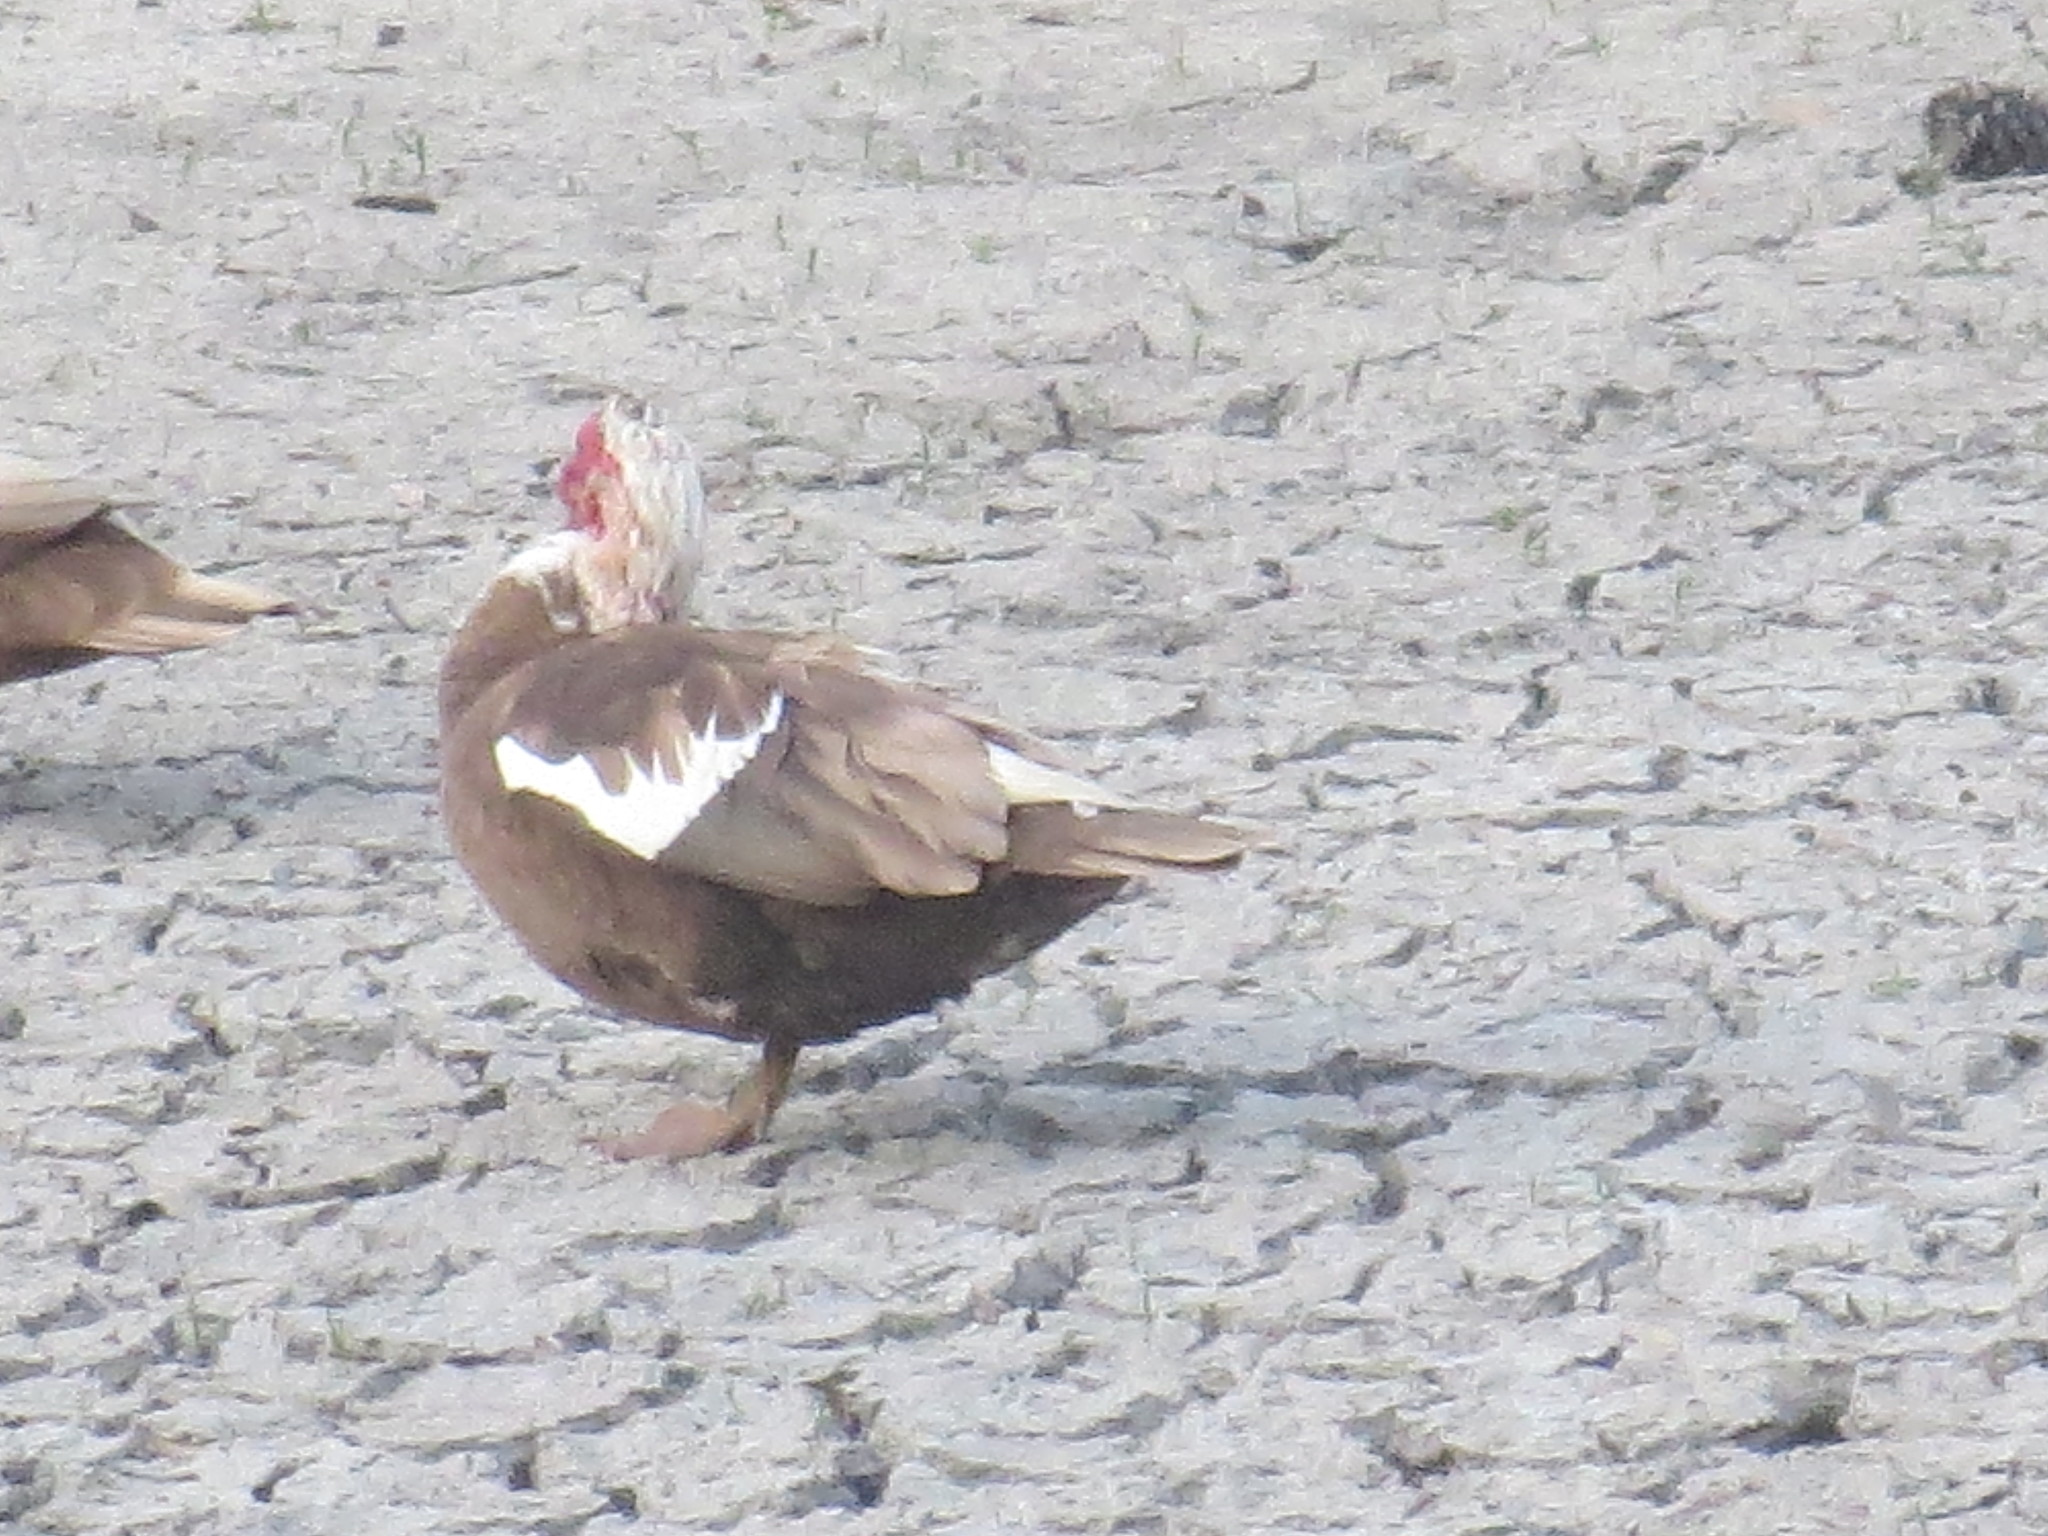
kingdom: Animalia
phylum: Chordata
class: Aves
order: Anseriformes
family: Anatidae
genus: Cairina
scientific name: Cairina moschata
